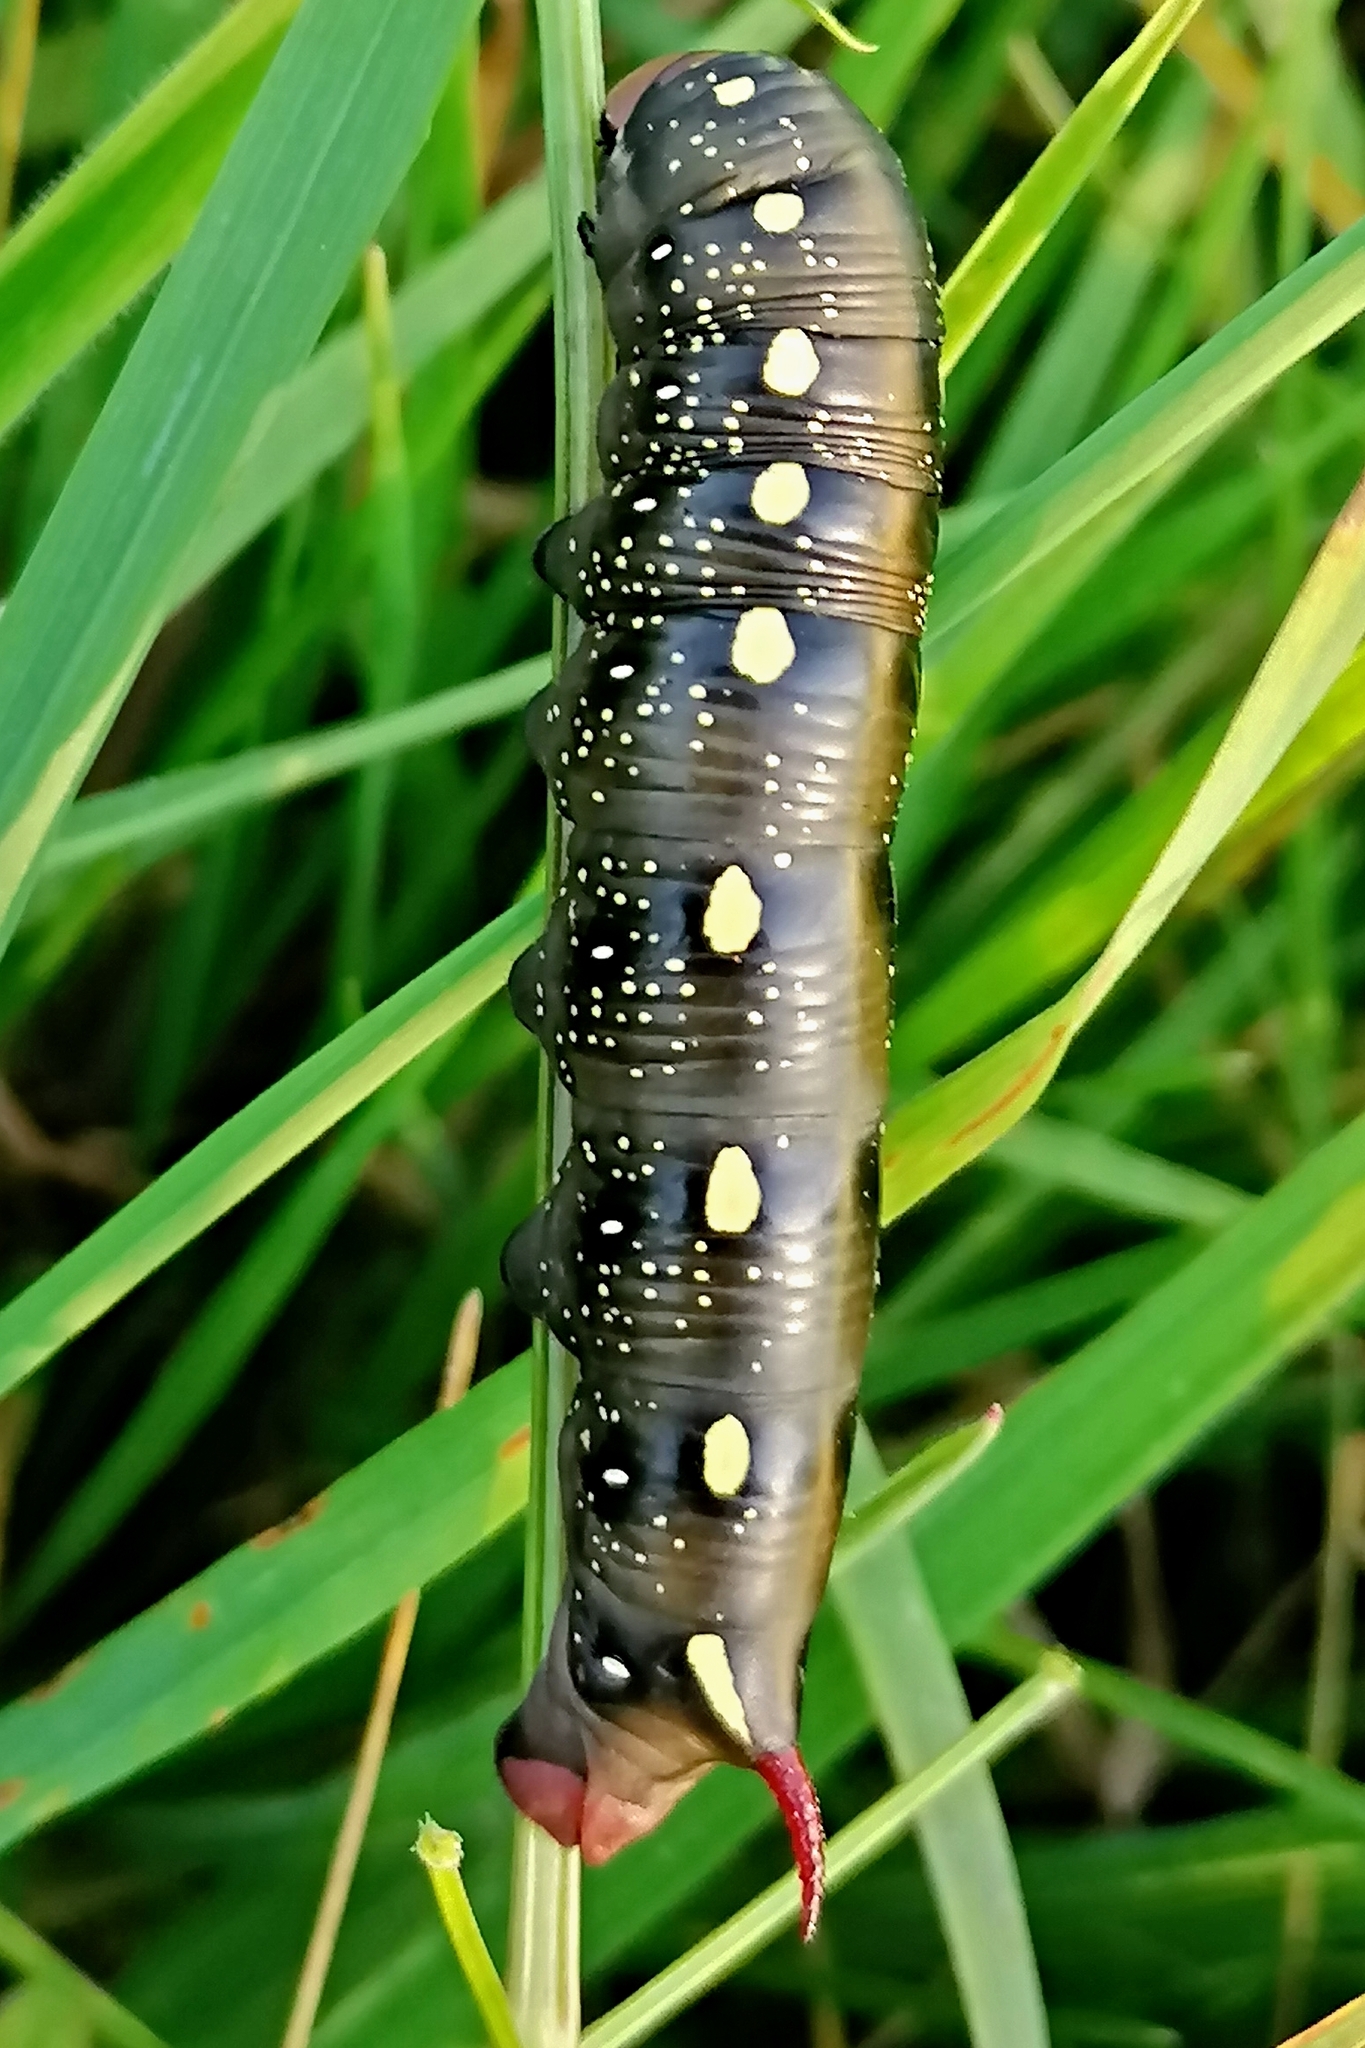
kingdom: Animalia
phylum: Arthropoda
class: Insecta
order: Lepidoptera
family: Sphingidae
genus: Hyles
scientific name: Hyles gallii
